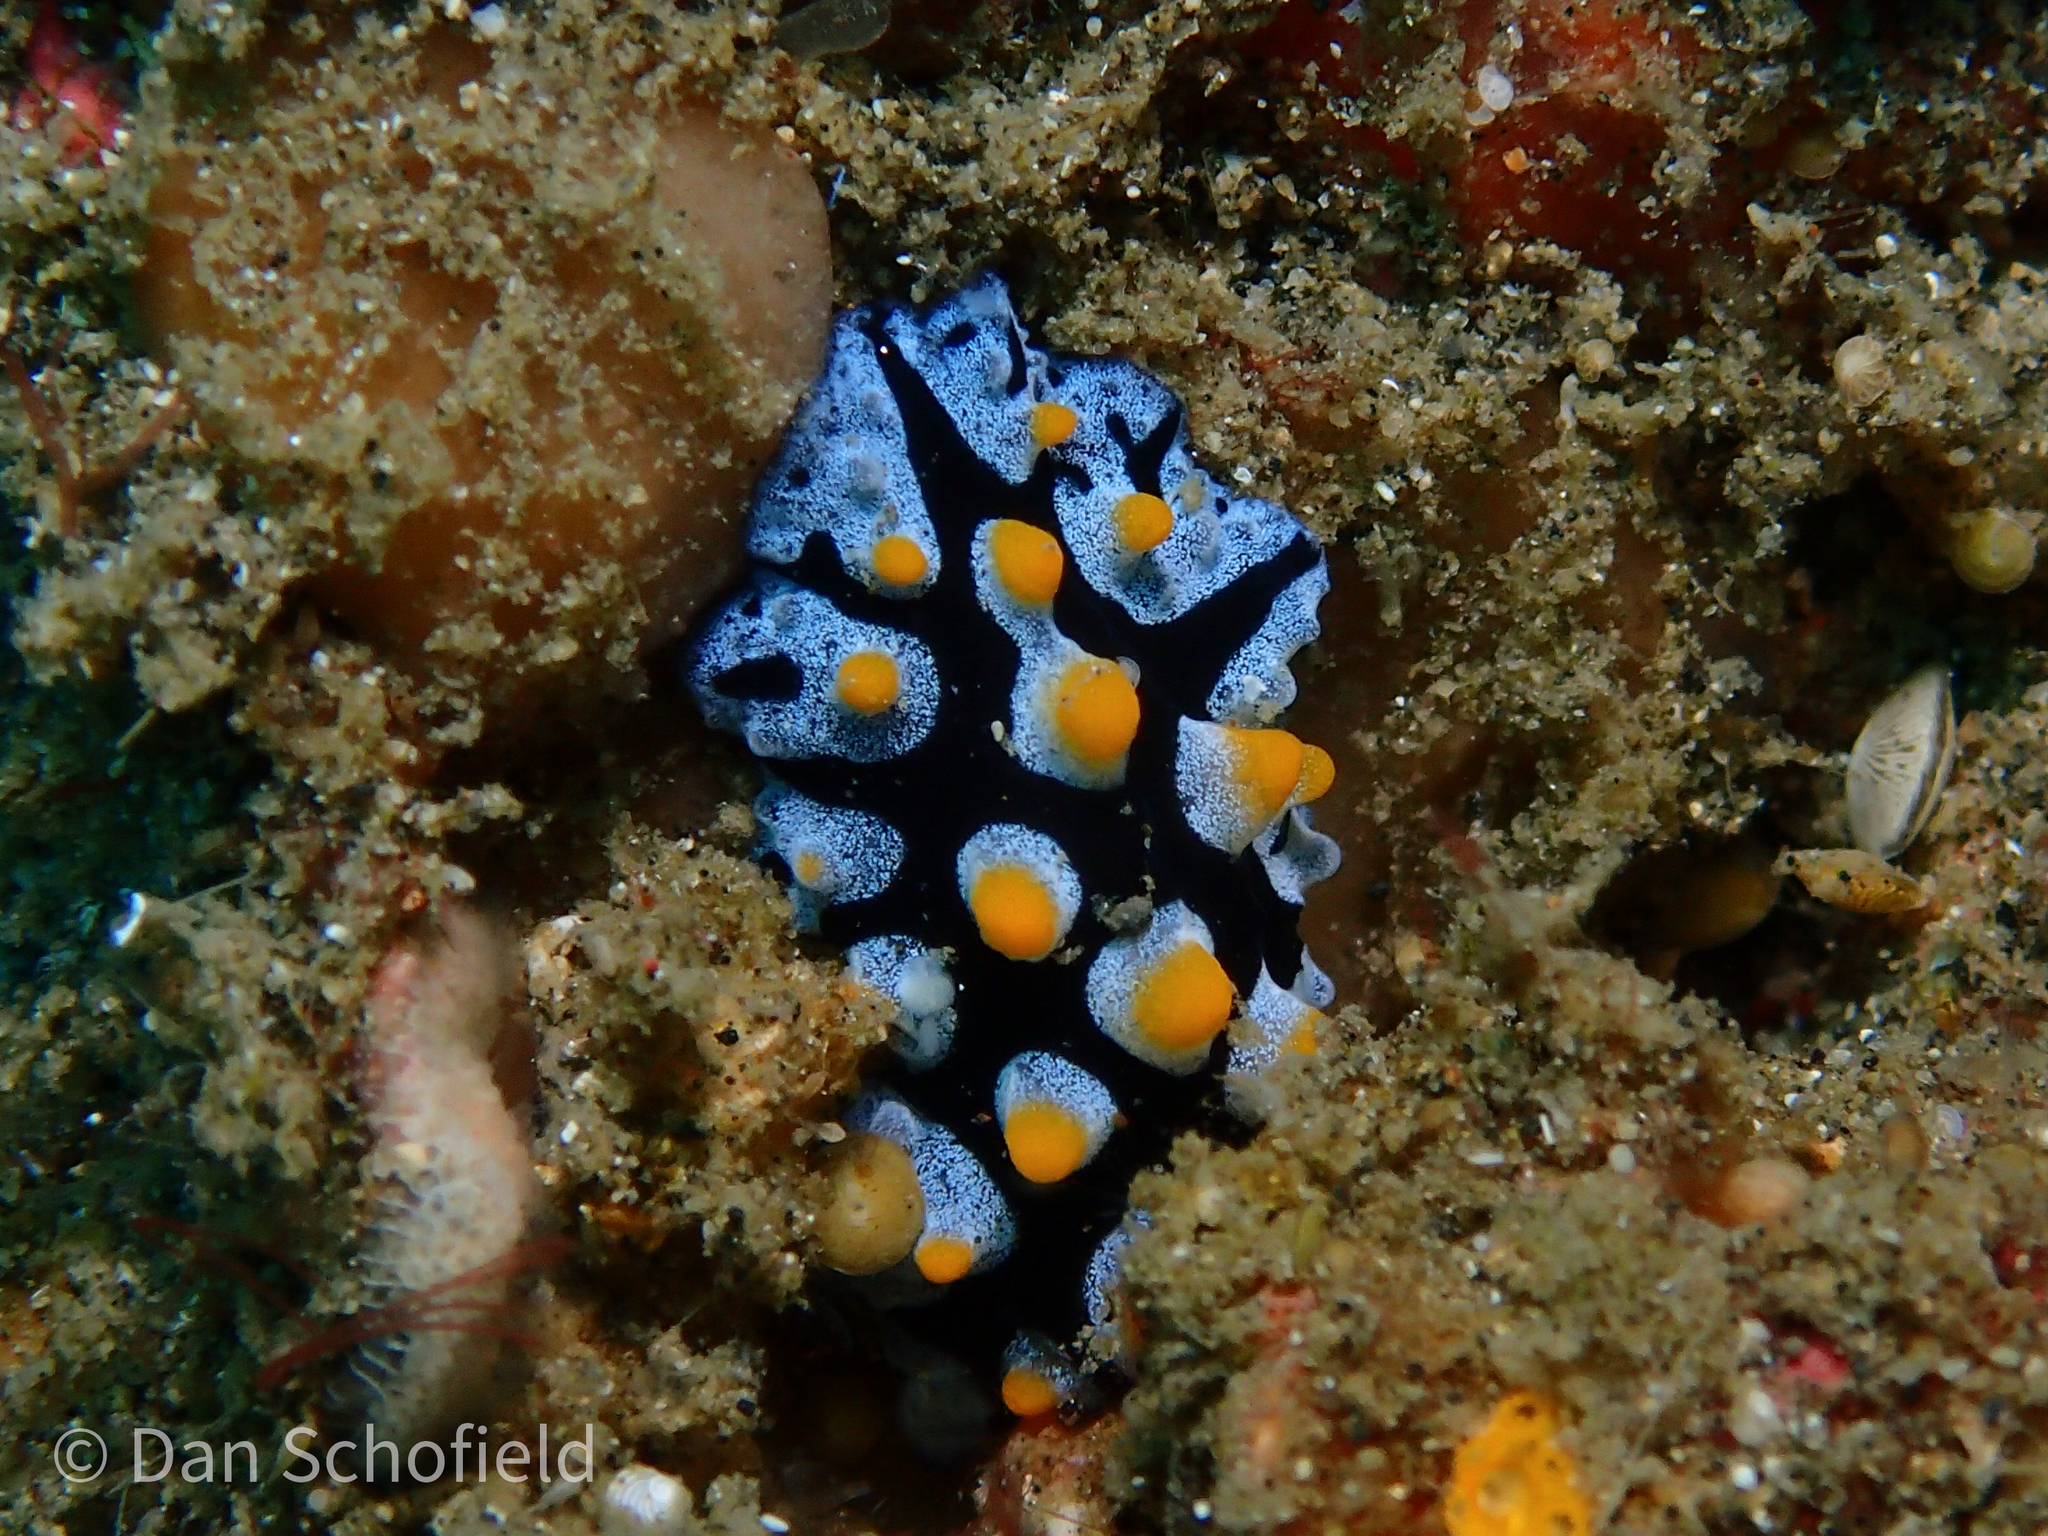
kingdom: Animalia
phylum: Mollusca
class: Gastropoda
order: Nudibranchia
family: Phyllidiidae
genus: Phyllidia
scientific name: Phyllidia picta
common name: Black-rayed phyllidia
